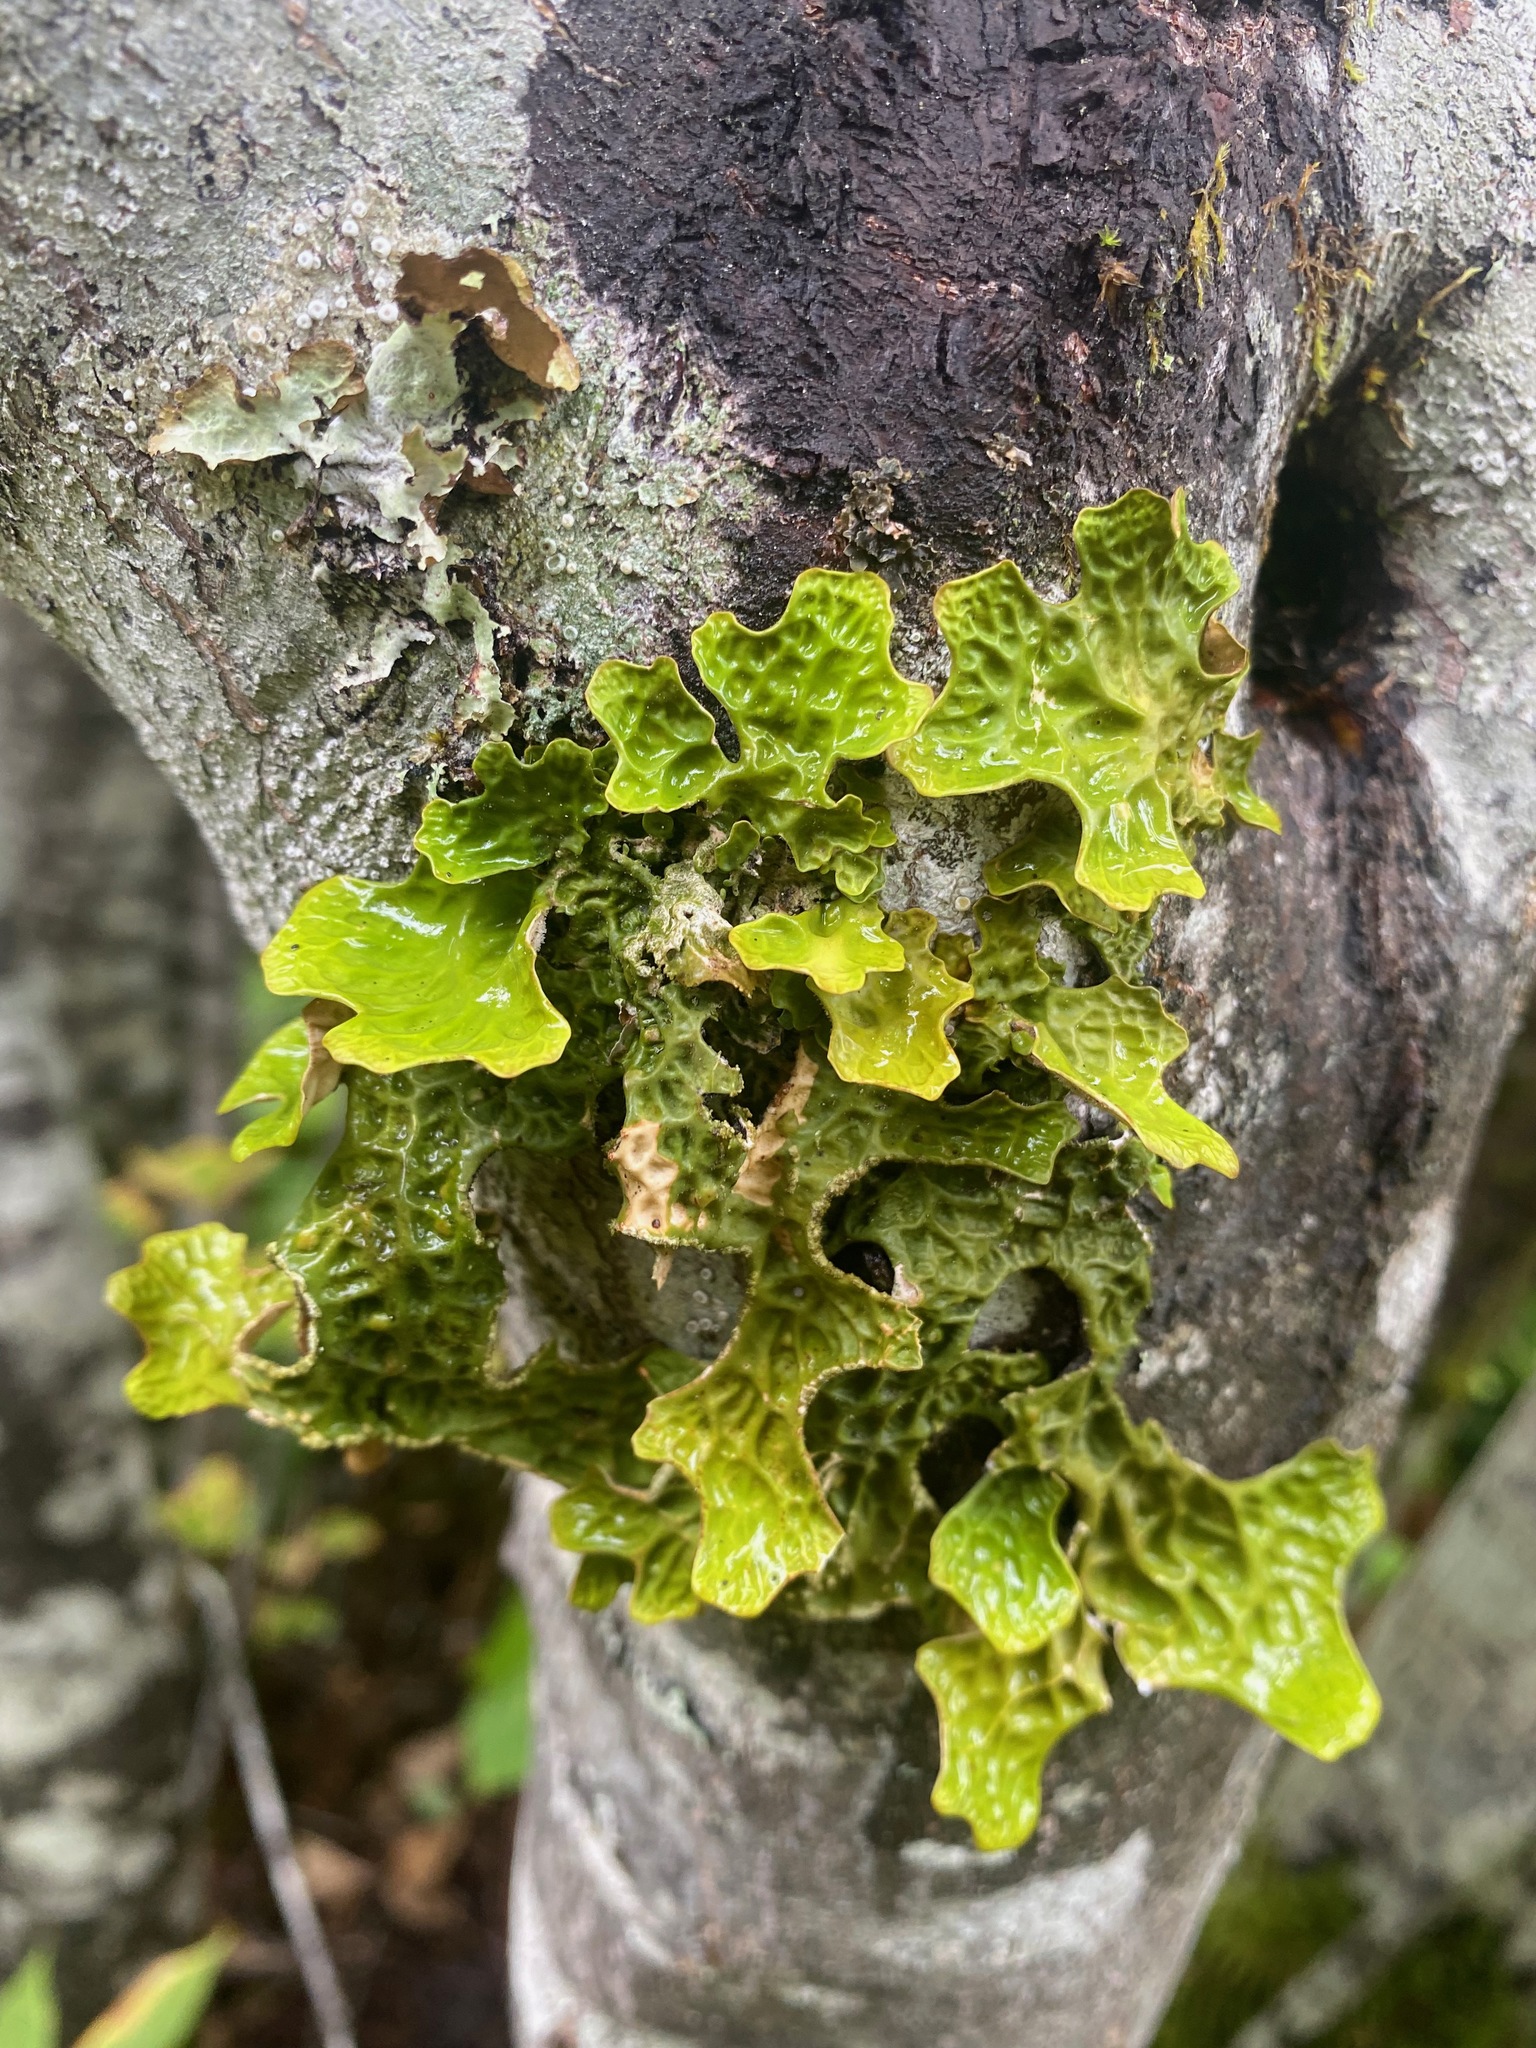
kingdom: Fungi
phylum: Ascomycota
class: Lecanoromycetes
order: Peltigerales
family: Lobariaceae
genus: Lobaria
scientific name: Lobaria pulmonaria
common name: Lungwort
